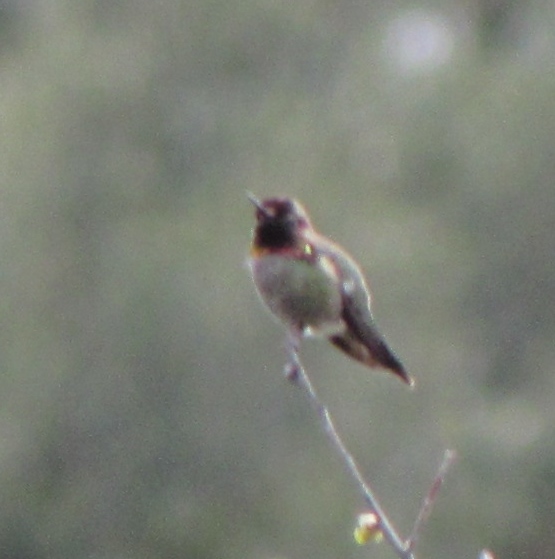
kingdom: Animalia
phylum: Chordata
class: Aves
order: Apodiformes
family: Trochilidae
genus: Calypte
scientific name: Calypte anna
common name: Anna's hummingbird
